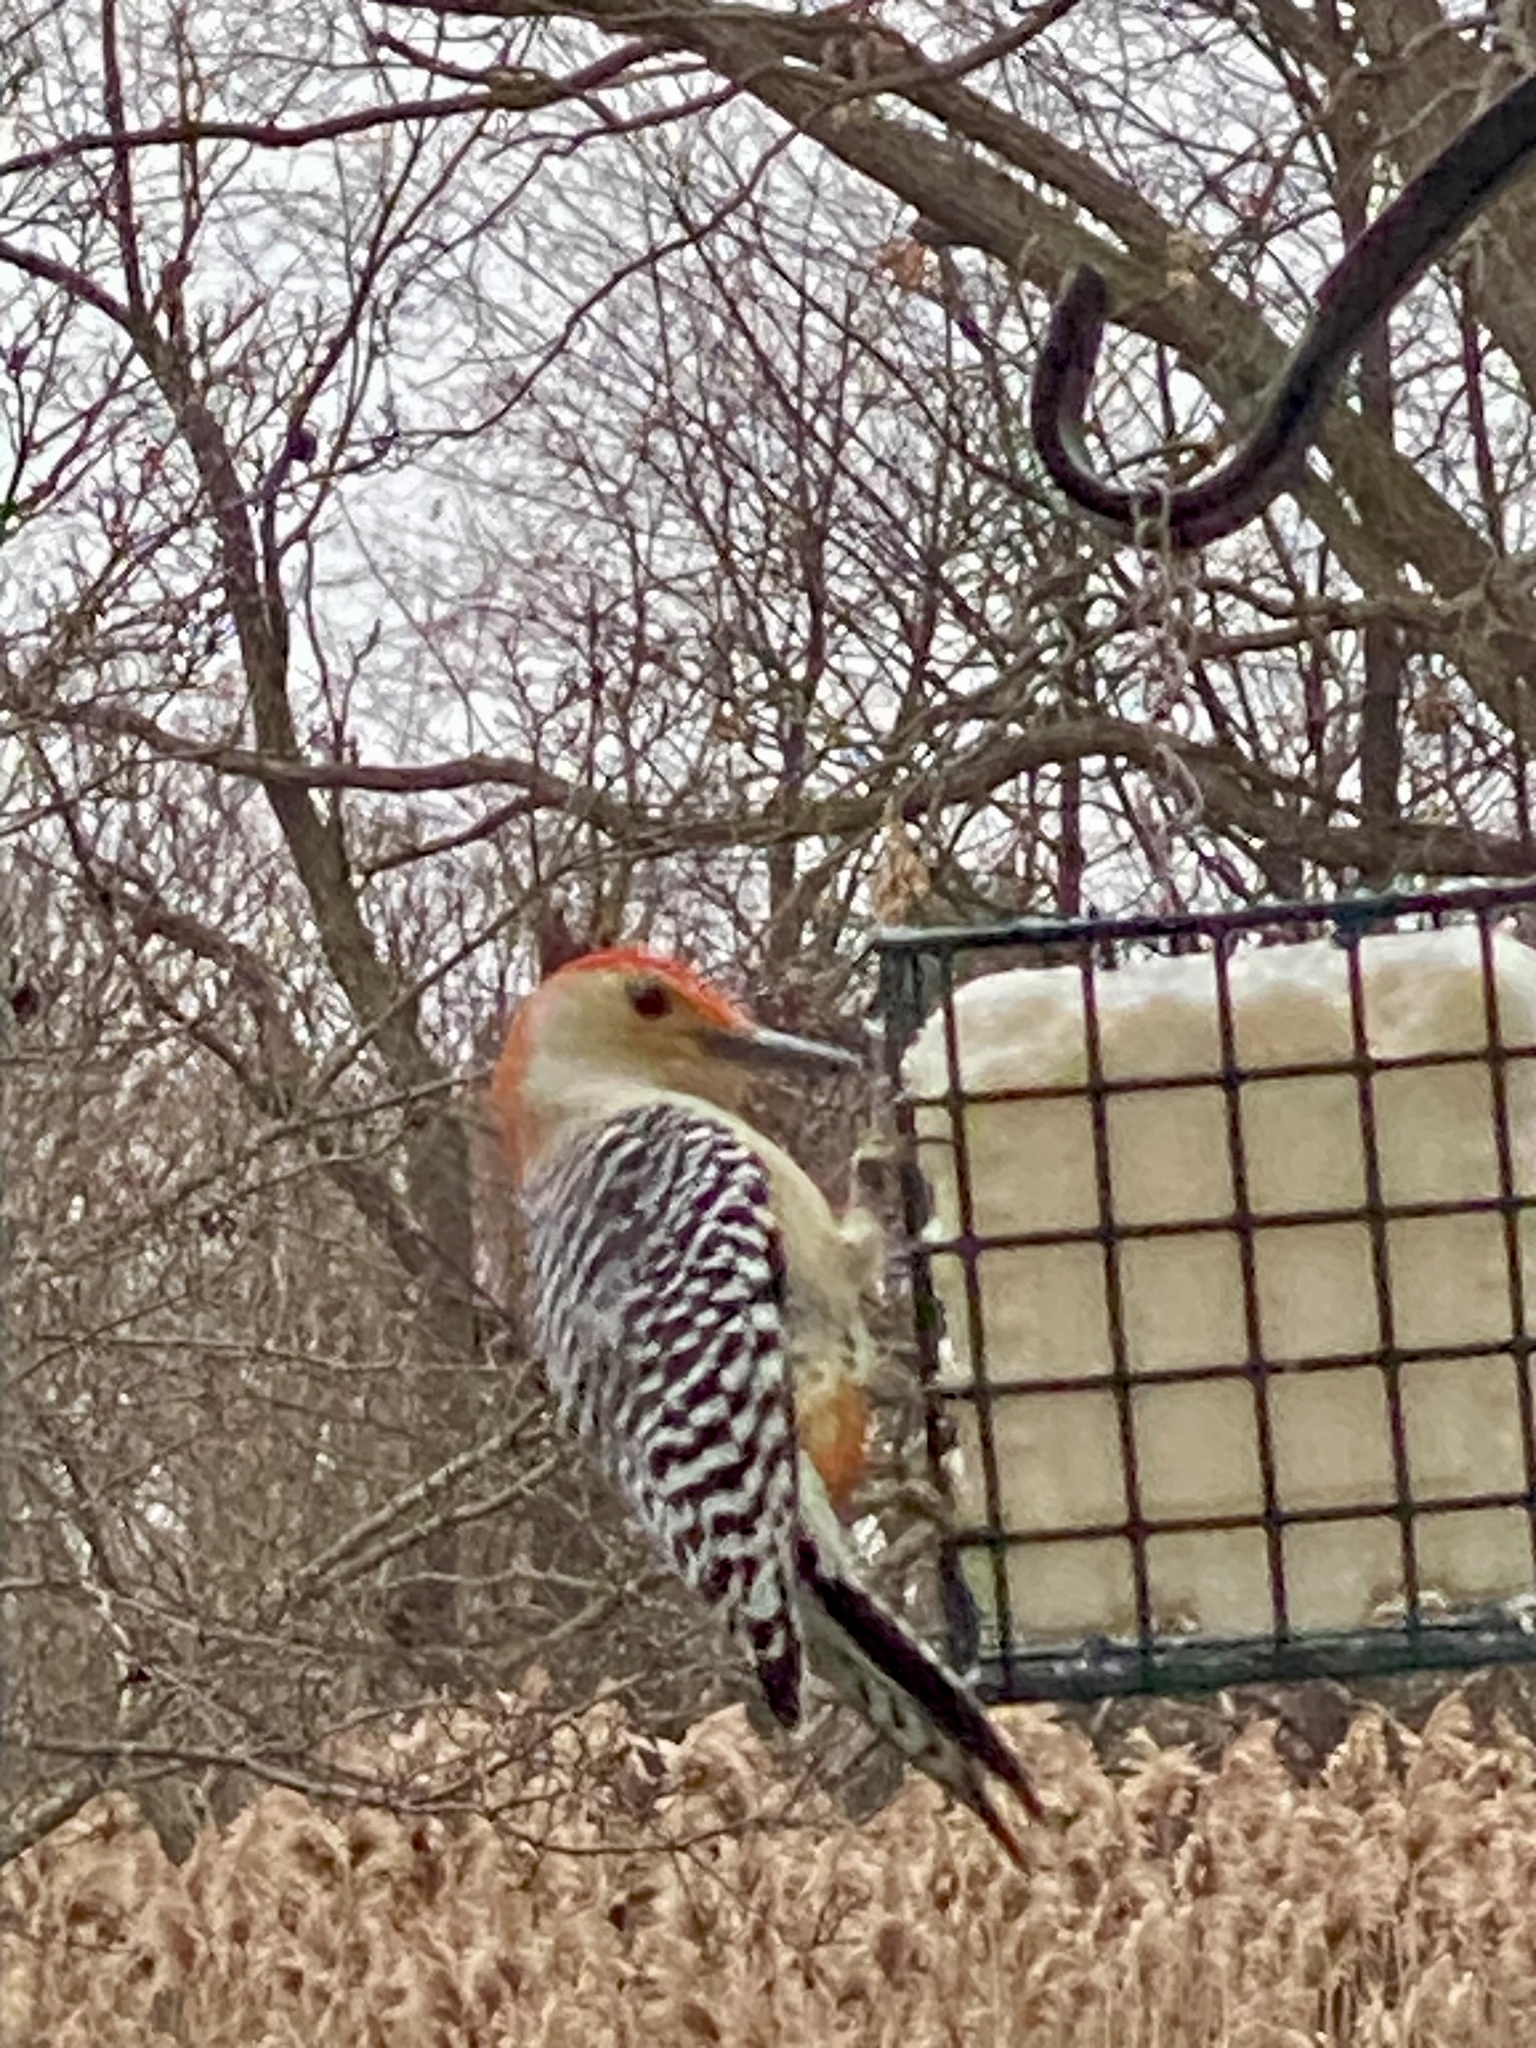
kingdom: Animalia
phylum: Chordata
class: Aves
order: Piciformes
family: Picidae
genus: Melanerpes
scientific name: Melanerpes carolinus
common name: Red-bellied woodpecker
